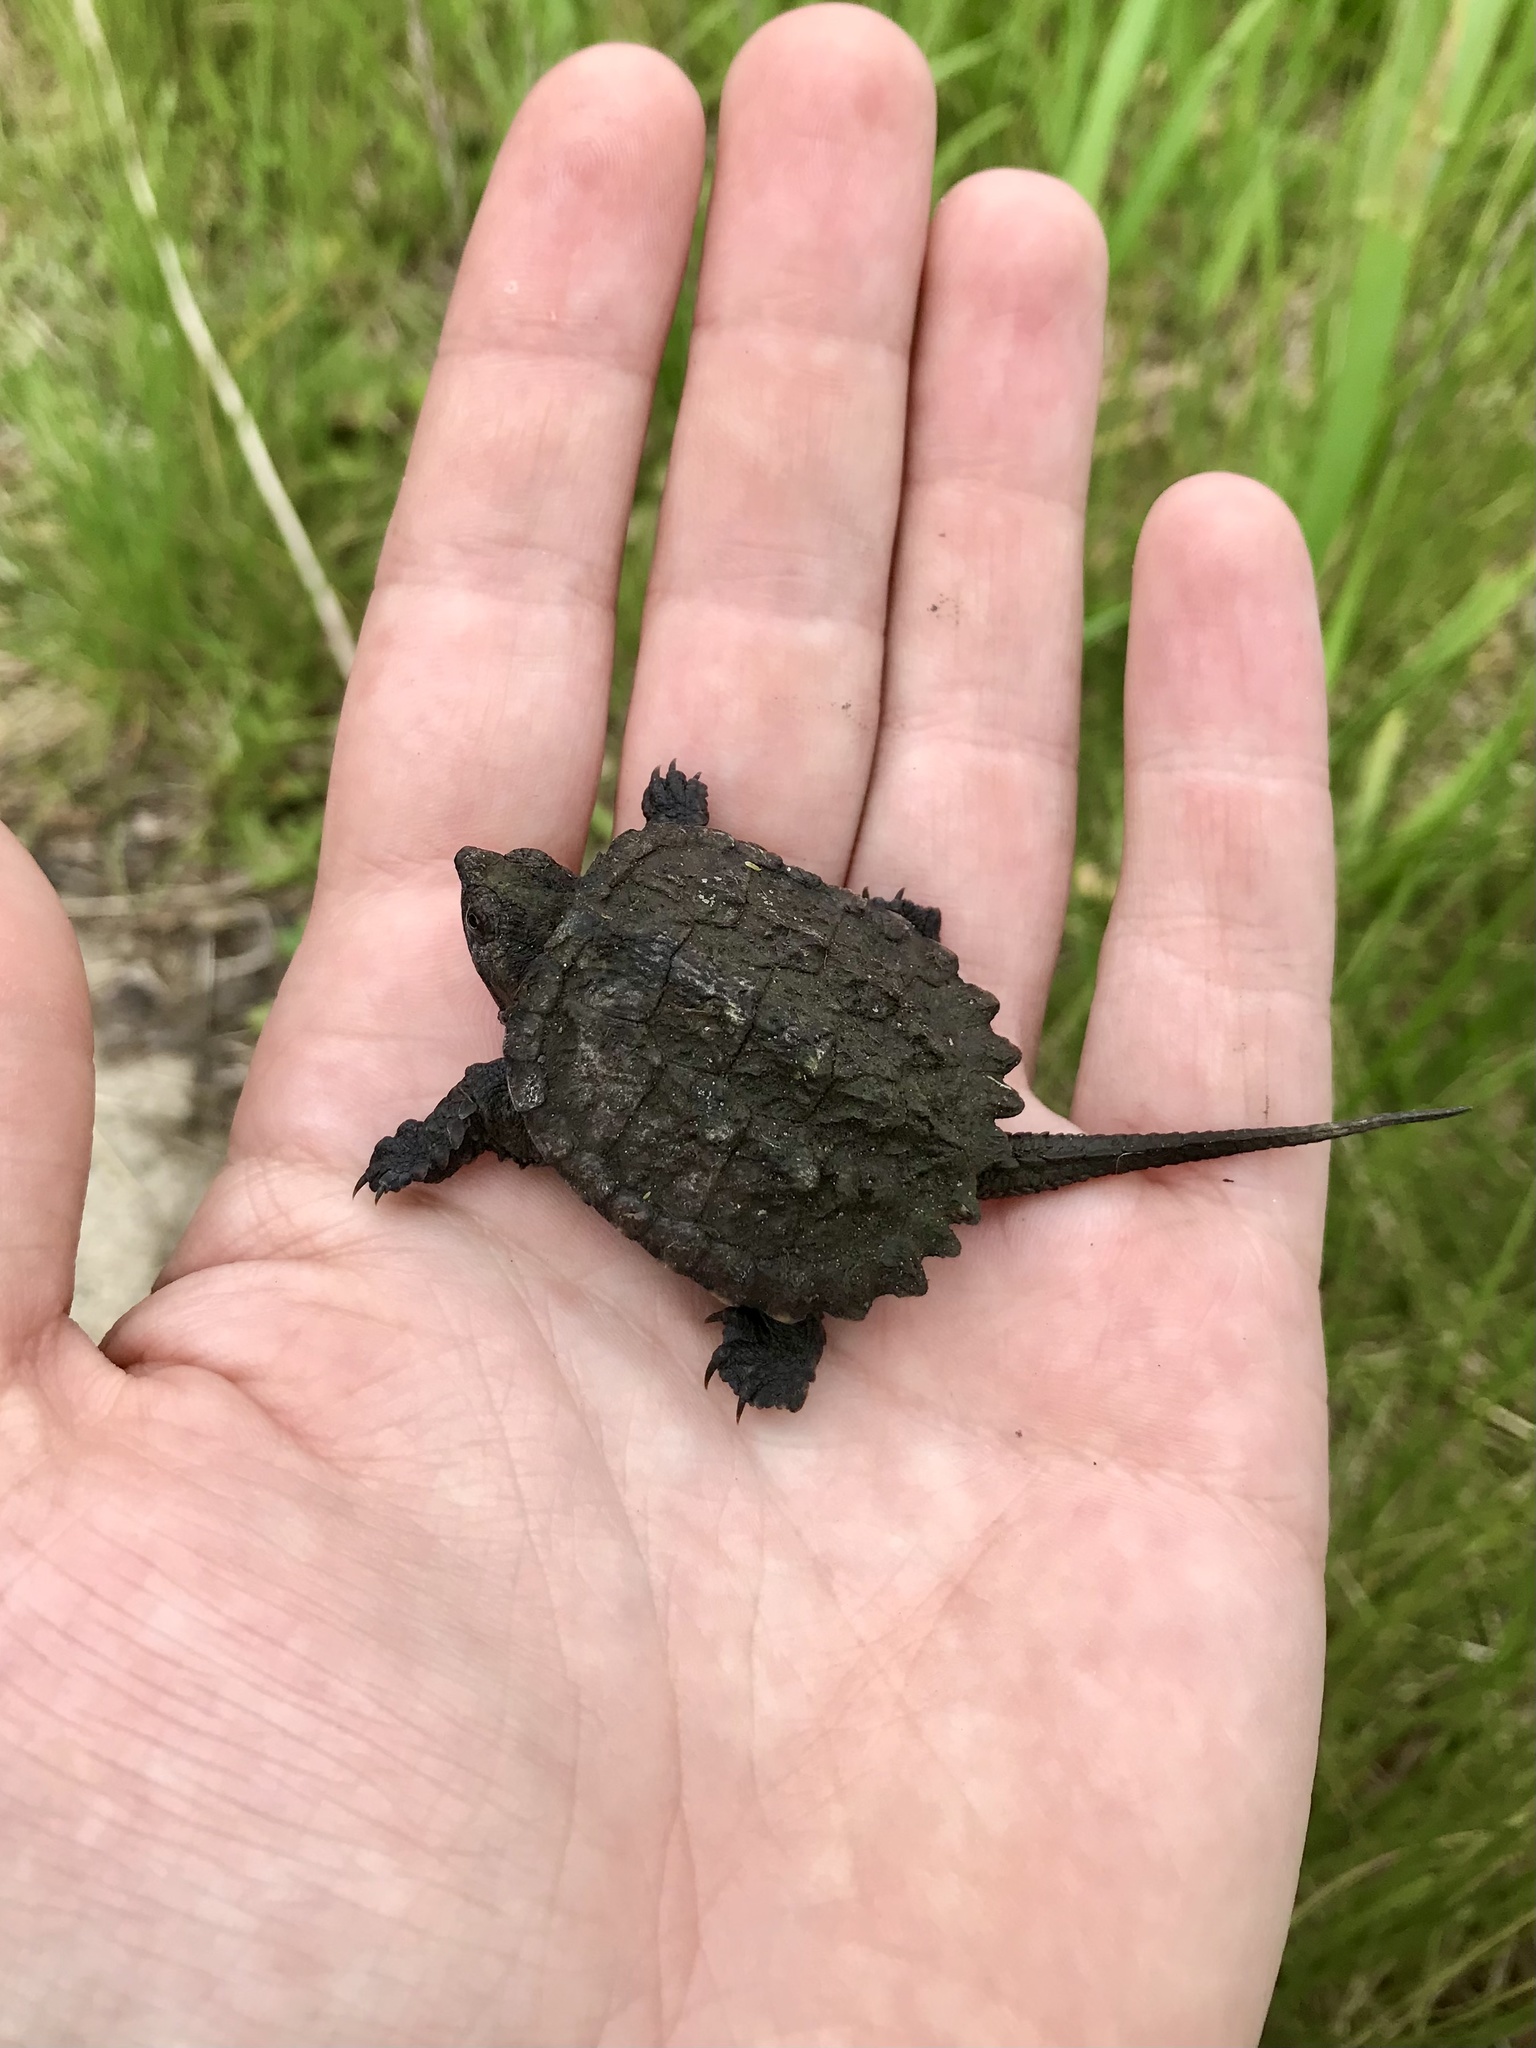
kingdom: Animalia
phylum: Chordata
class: Testudines
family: Chelydridae
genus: Chelydra
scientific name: Chelydra serpentina
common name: Common snapping turtle
